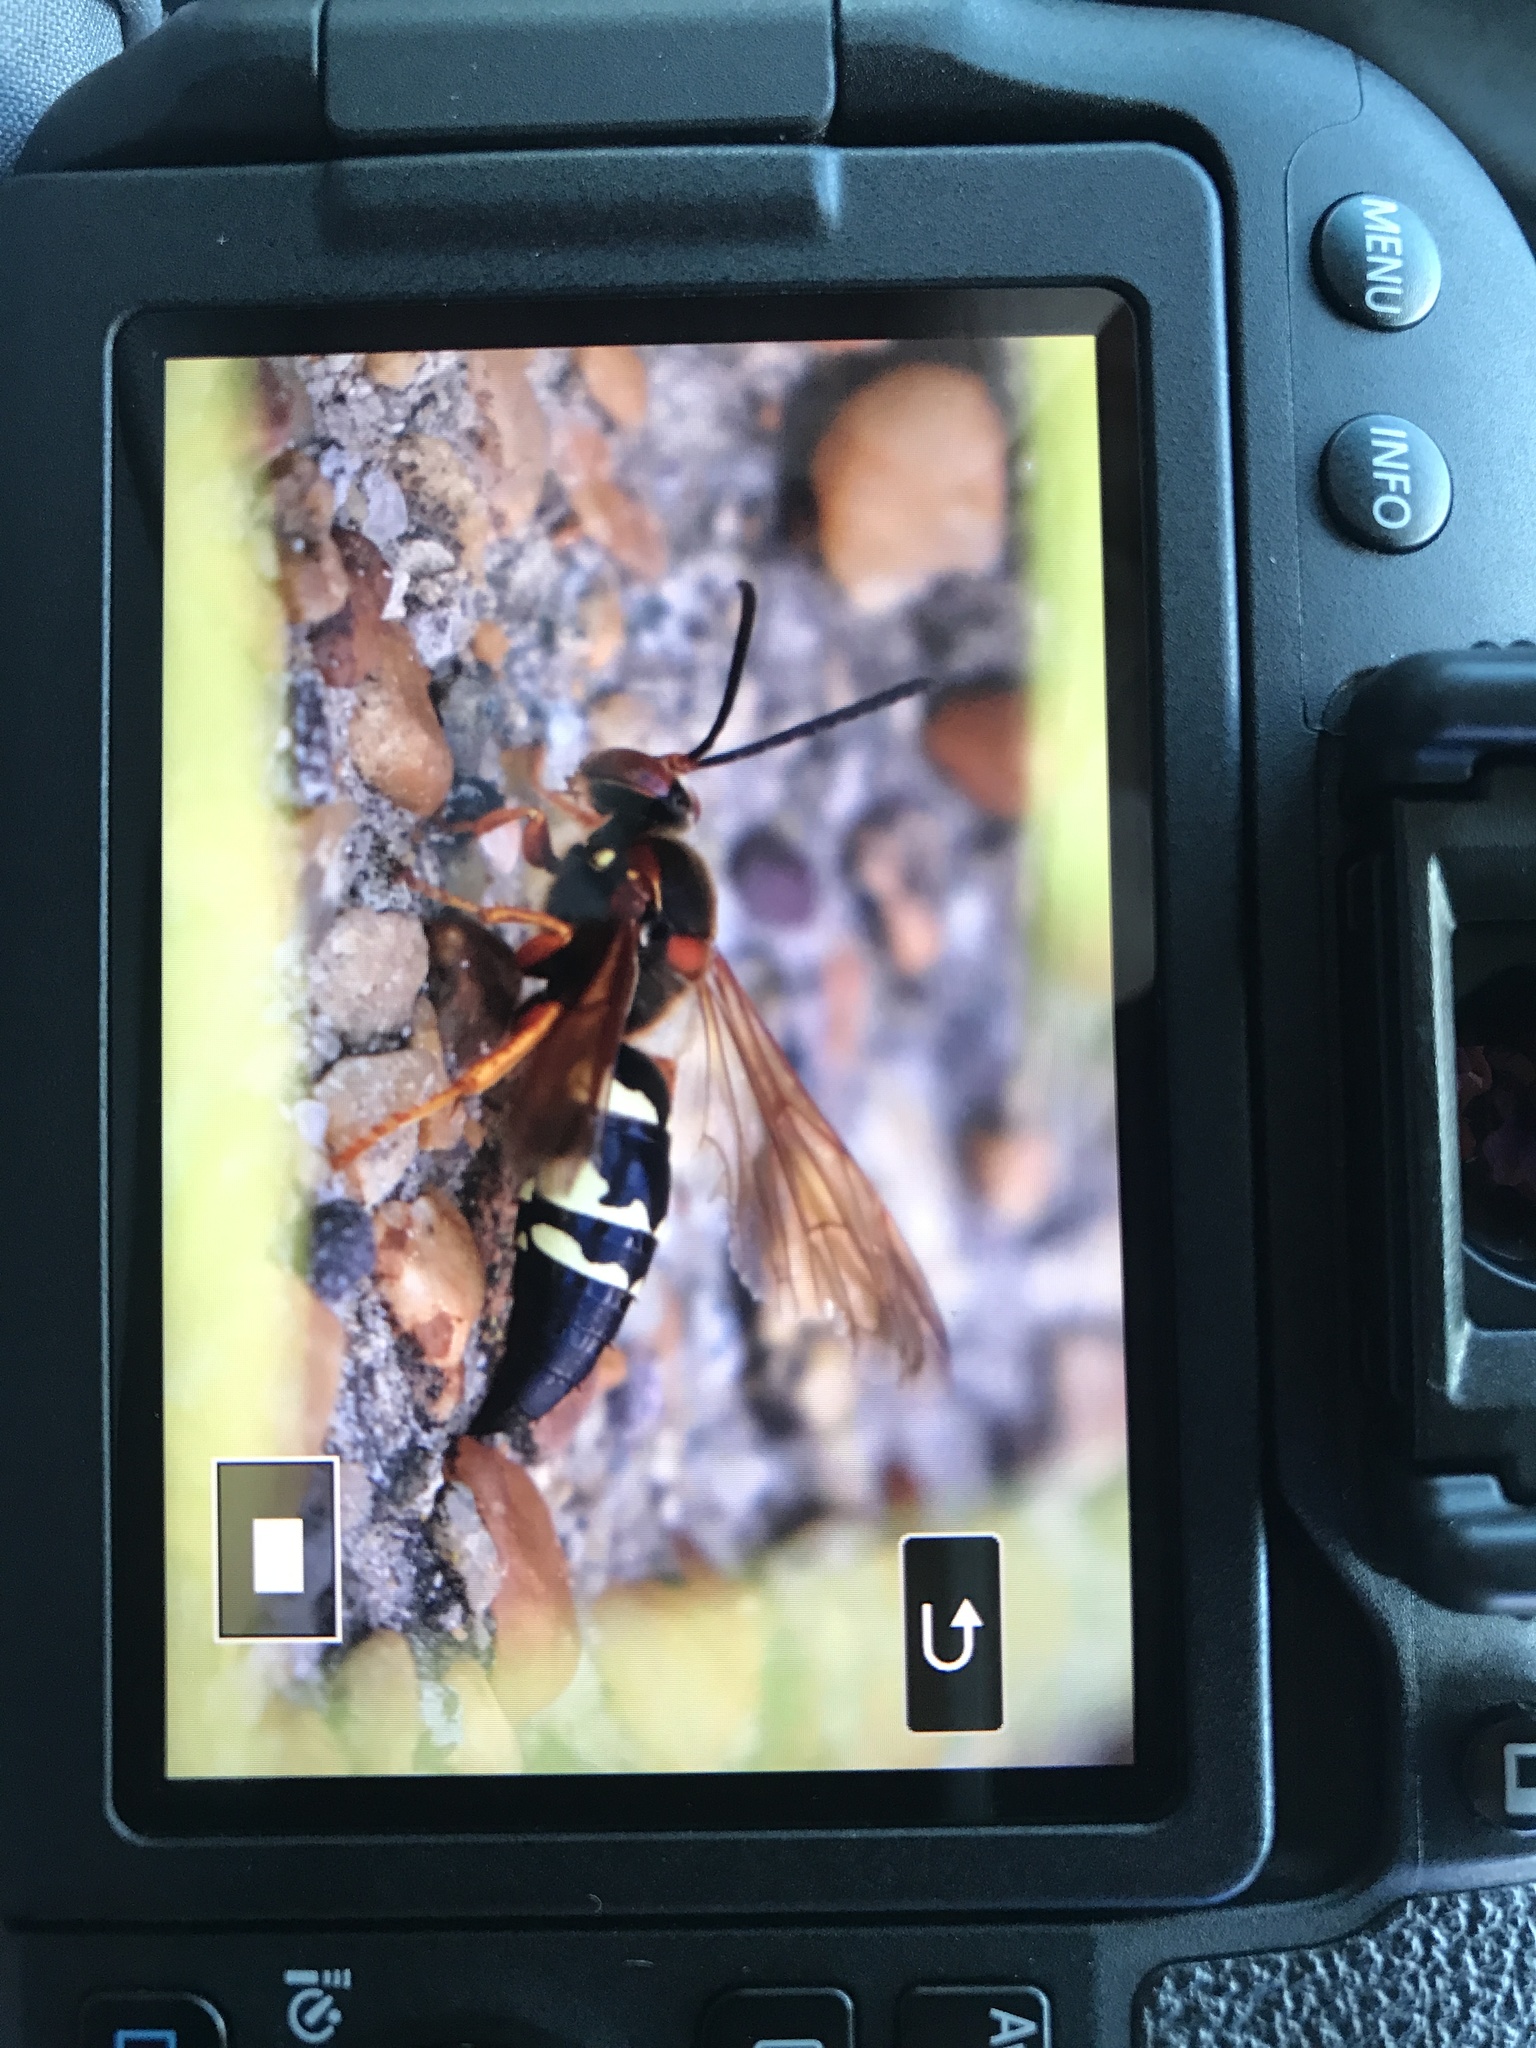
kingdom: Animalia
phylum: Arthropoda
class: Insecta
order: Hymenoptera
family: Crabronidae
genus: Sphecius
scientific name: Sphecius speciosus
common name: Cicada killer
